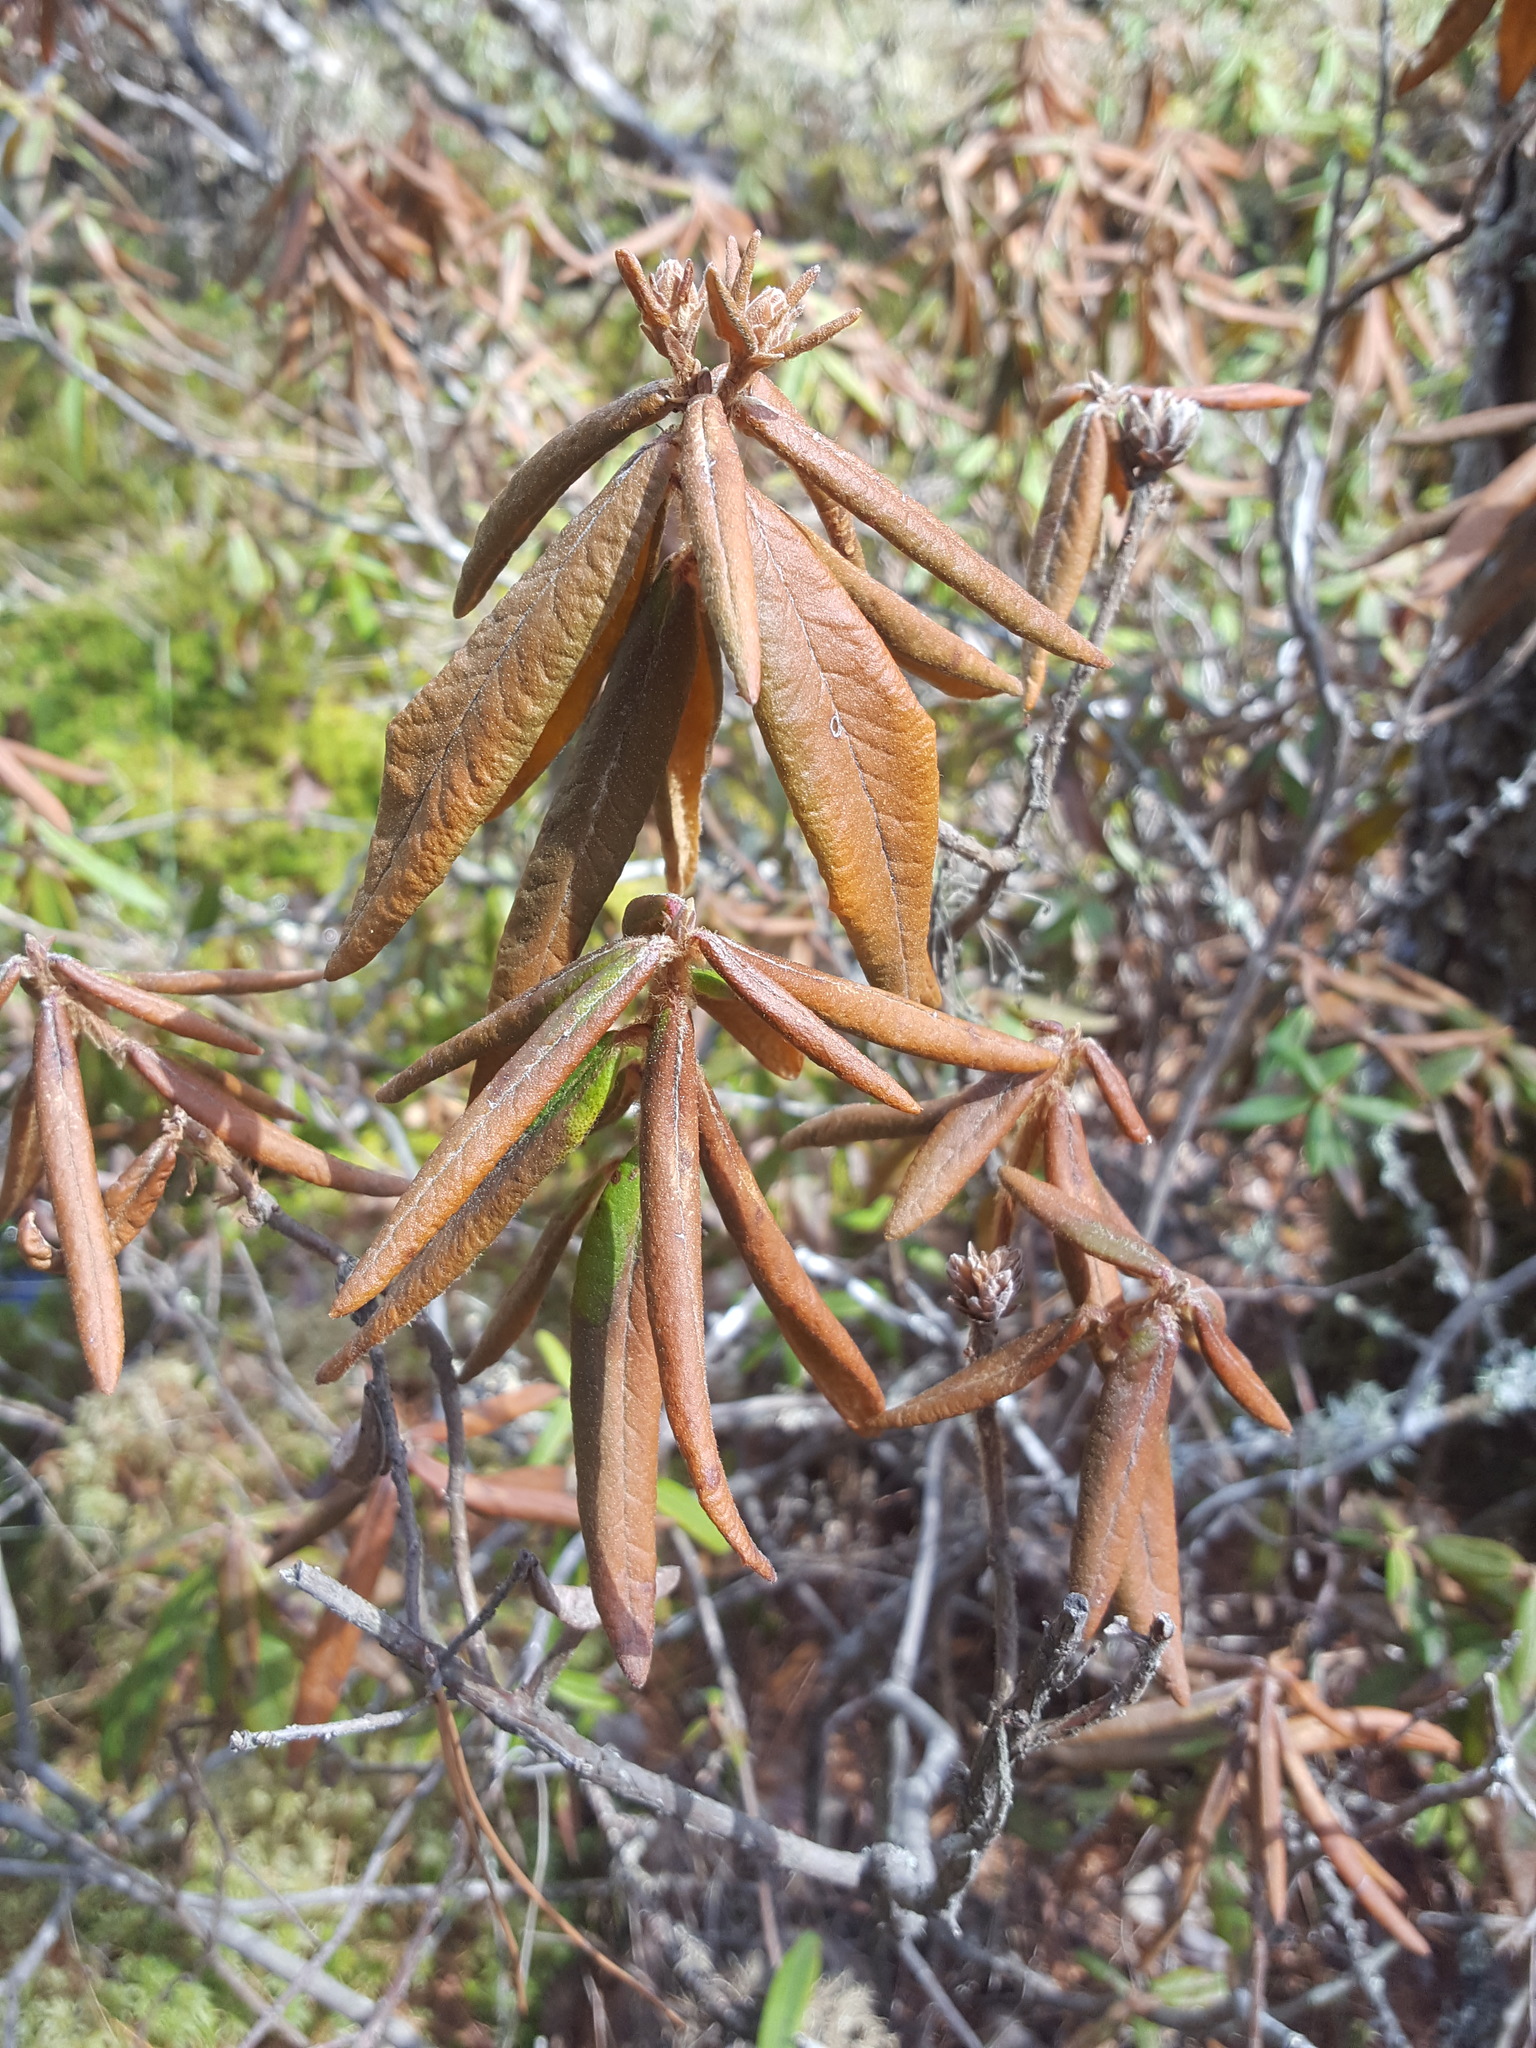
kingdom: Plantae
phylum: Tracheophyta
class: Magnoliopsida
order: Ericales
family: Ericaceae
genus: Rhododendron
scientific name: Rhododendron groenlandicum
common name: Bog labrador tea
